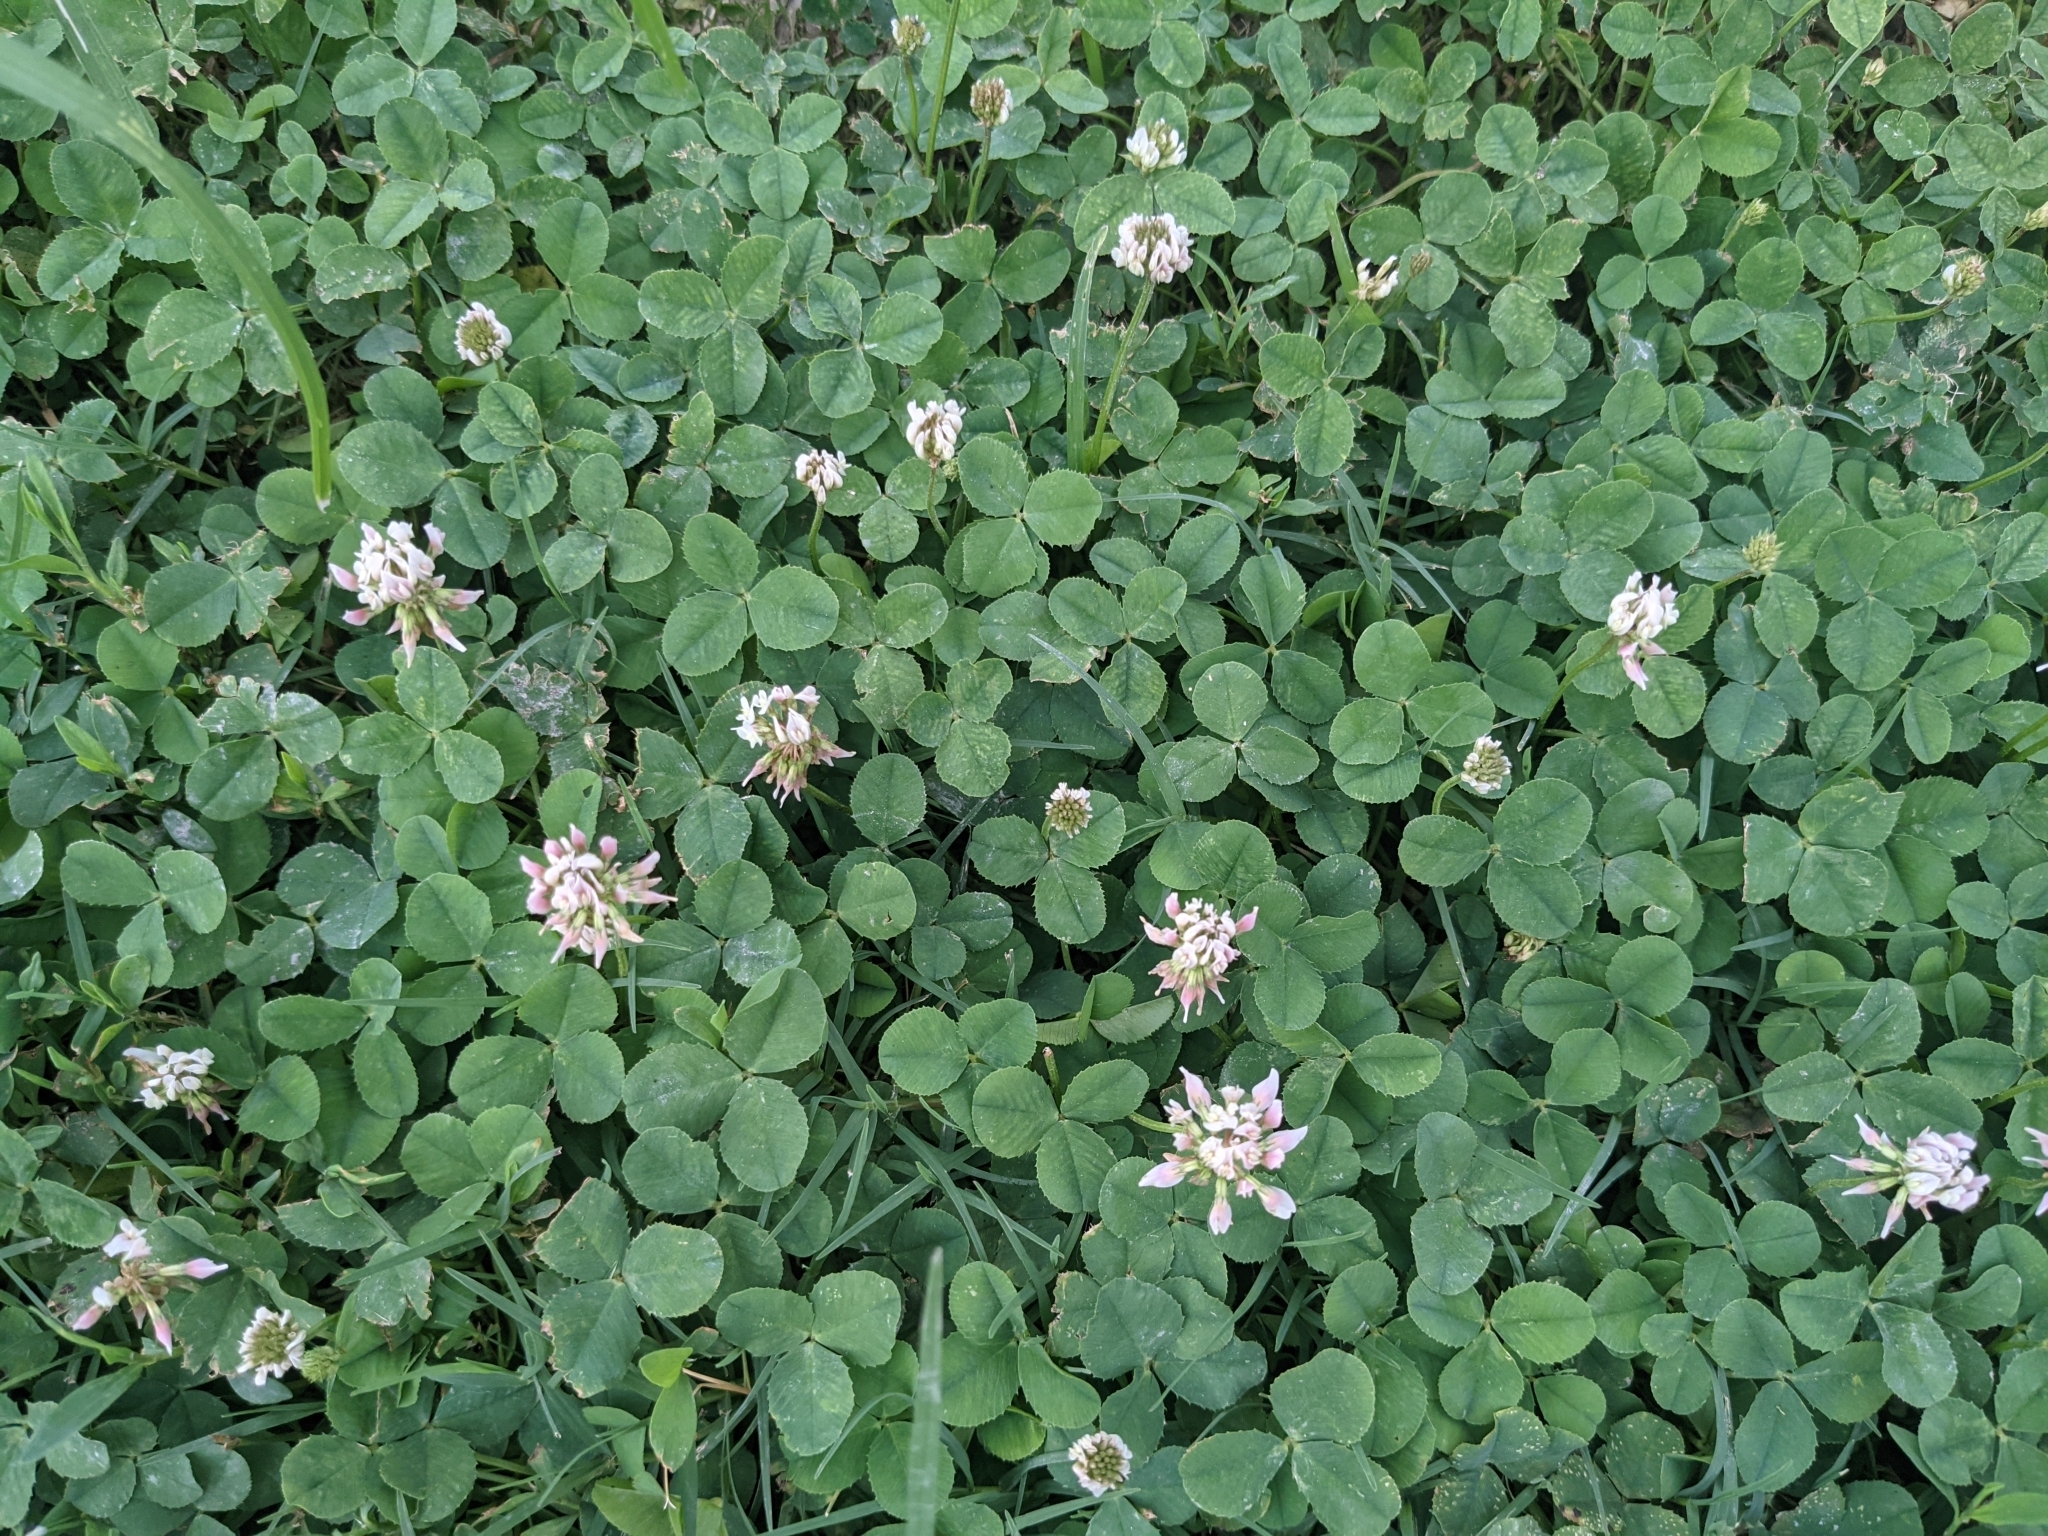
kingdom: Plantae
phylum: Tracheophyta
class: Magnoliopsida
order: Fabales
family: Fabaceae
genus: Trifolium
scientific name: Trifolium repens
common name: White clover
